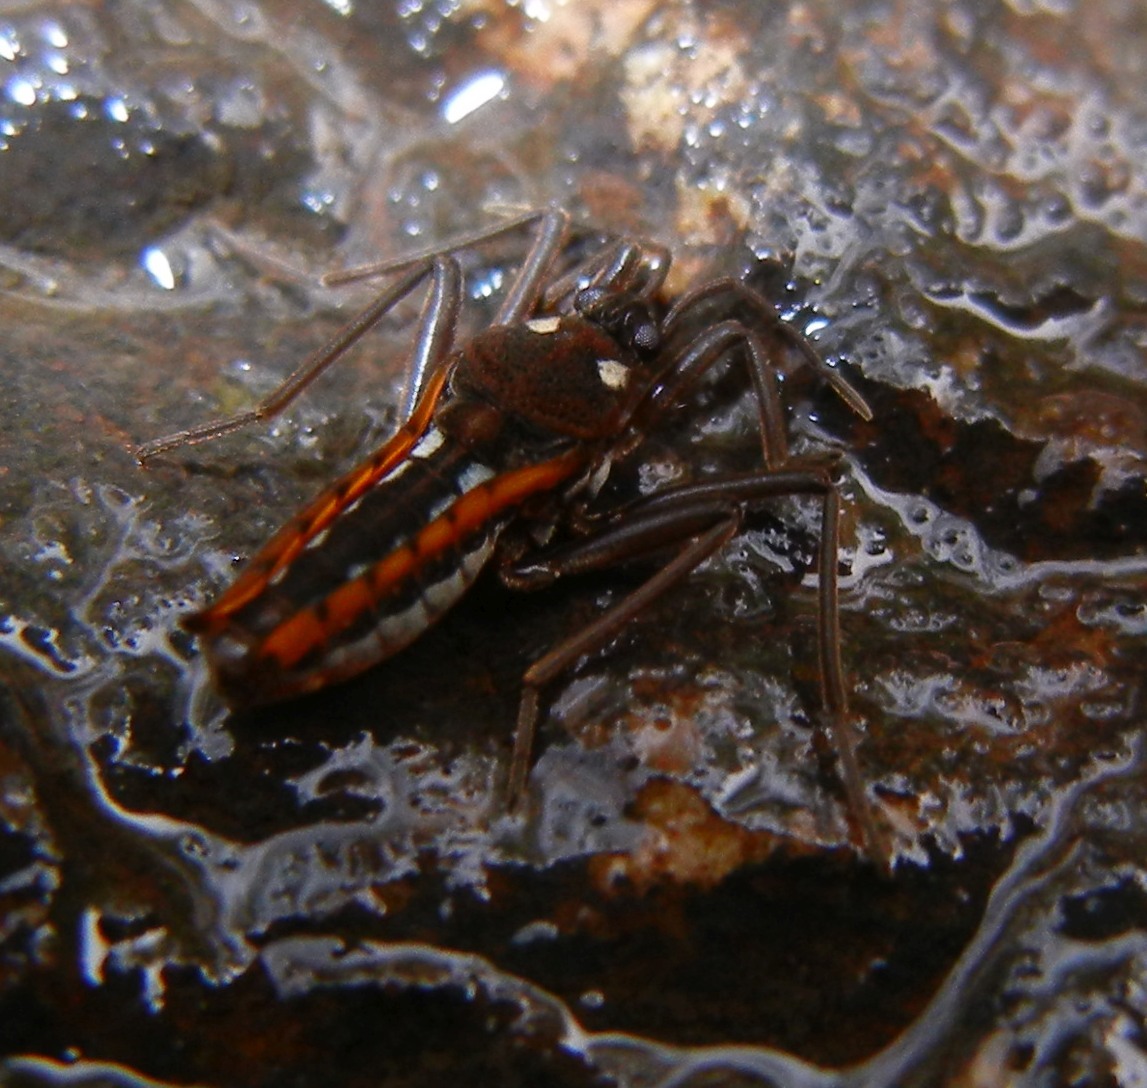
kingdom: Animalia
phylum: Arthropoda
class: Insecta
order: Hemiptera
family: Veliidae
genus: Velia
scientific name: Velia caprai
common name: Water cricket
